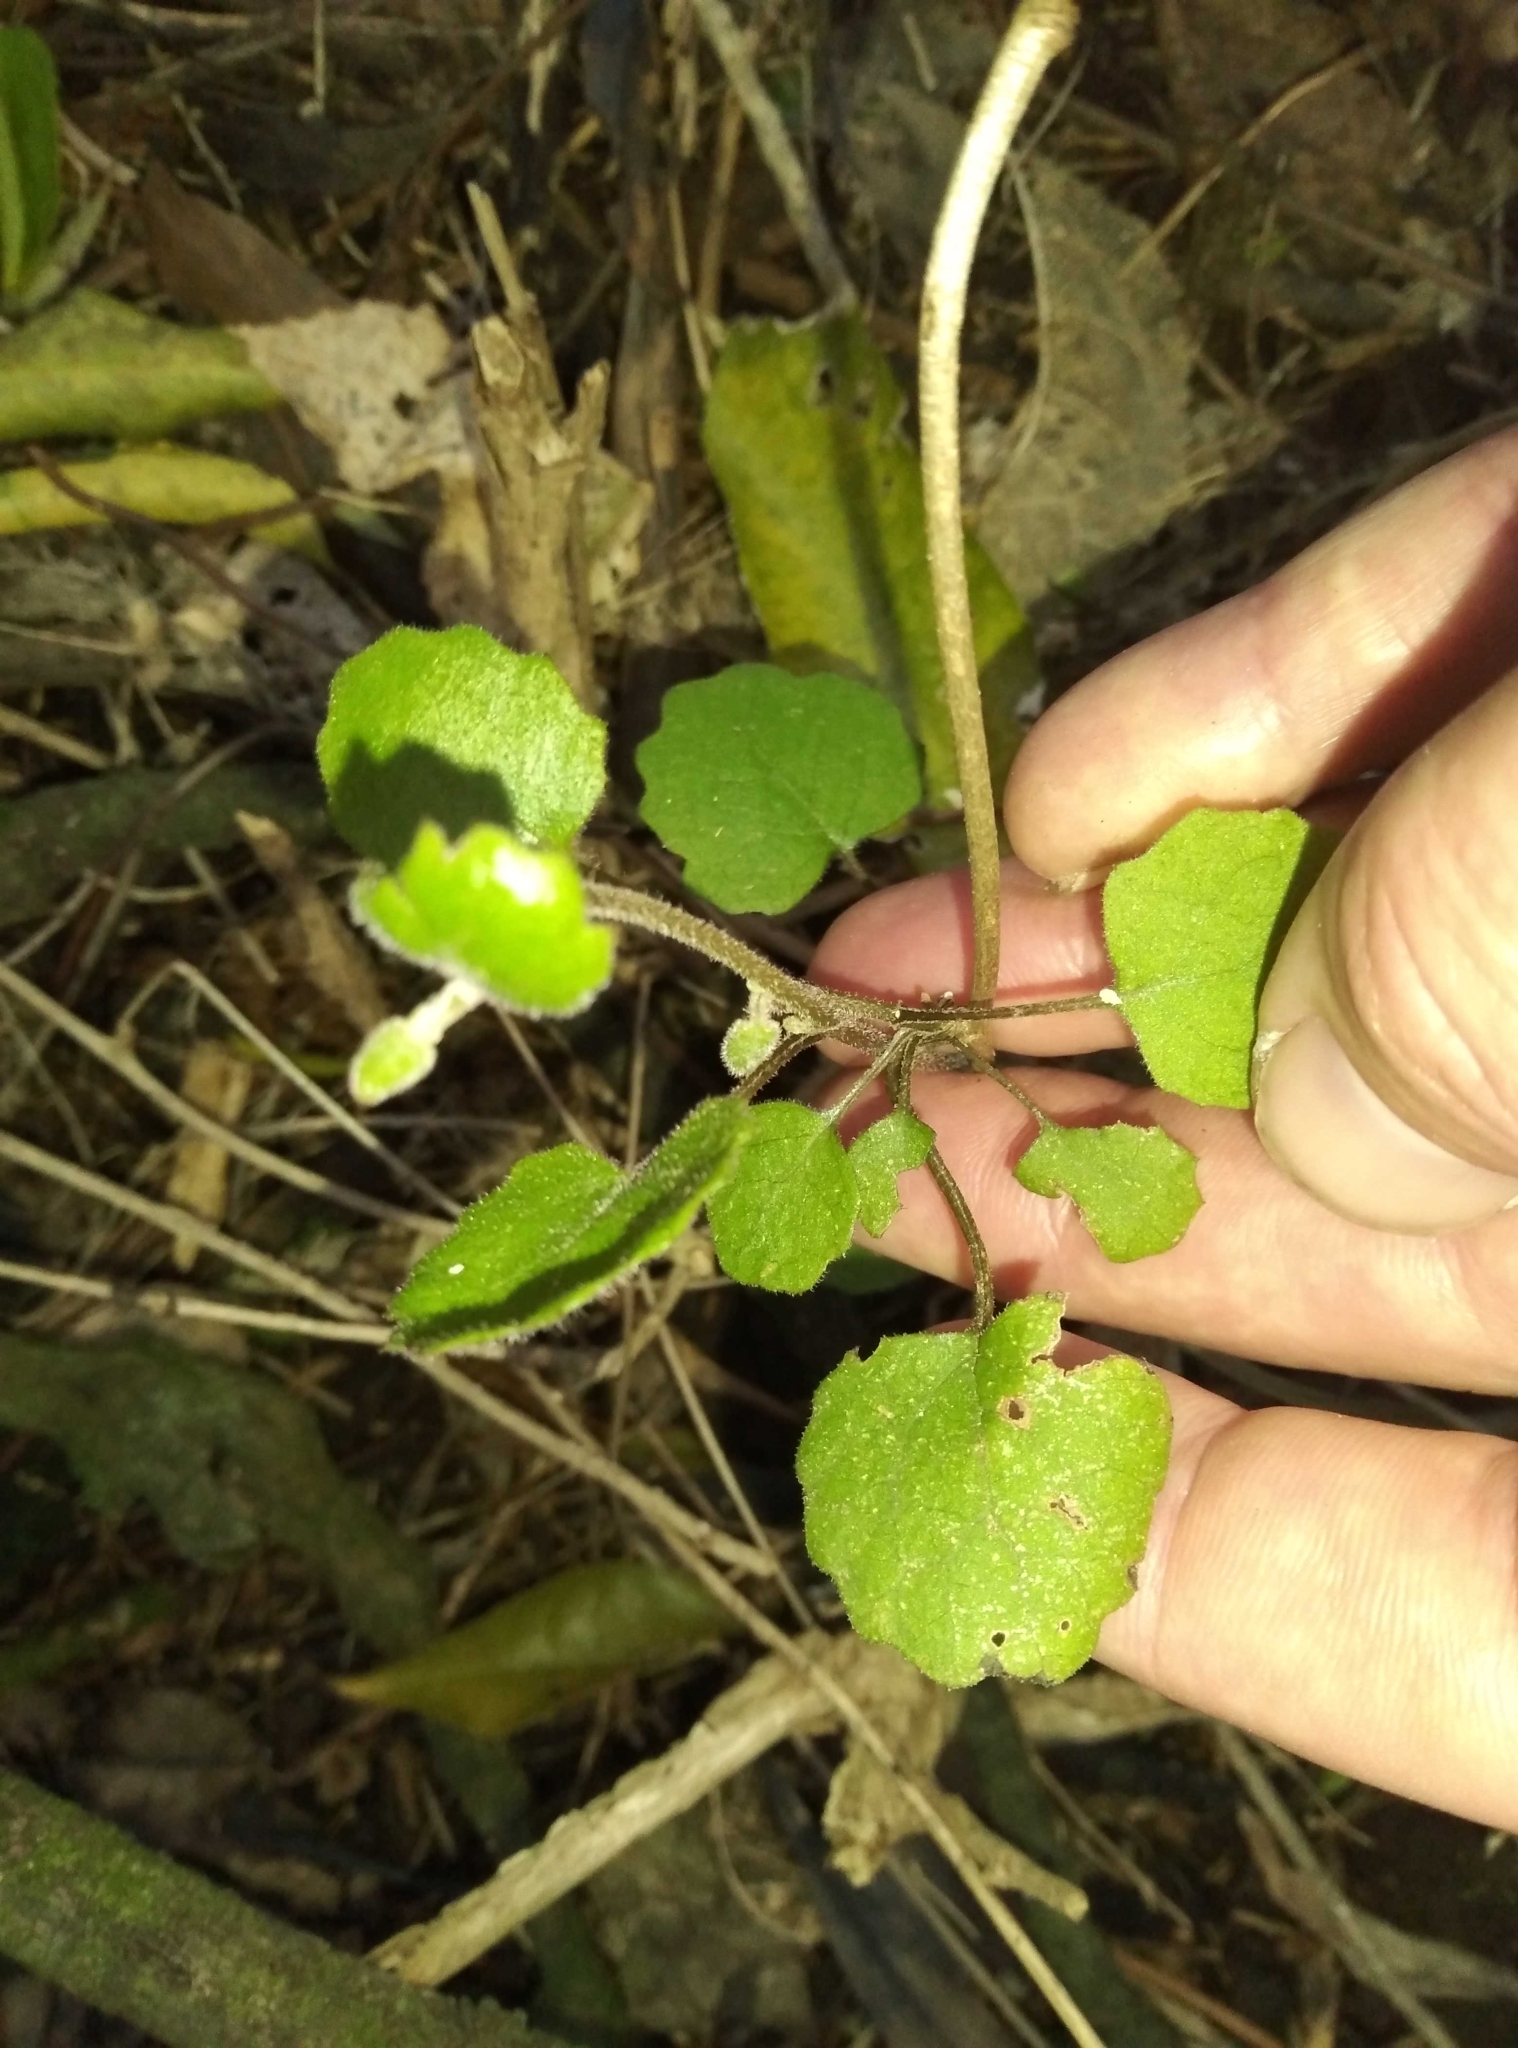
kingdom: Plantae
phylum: Tracheophyta
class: Magnoliopsida
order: Asterales
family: Asteraceae
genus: Brachyglottis
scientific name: Brachyglottis sciadophila
